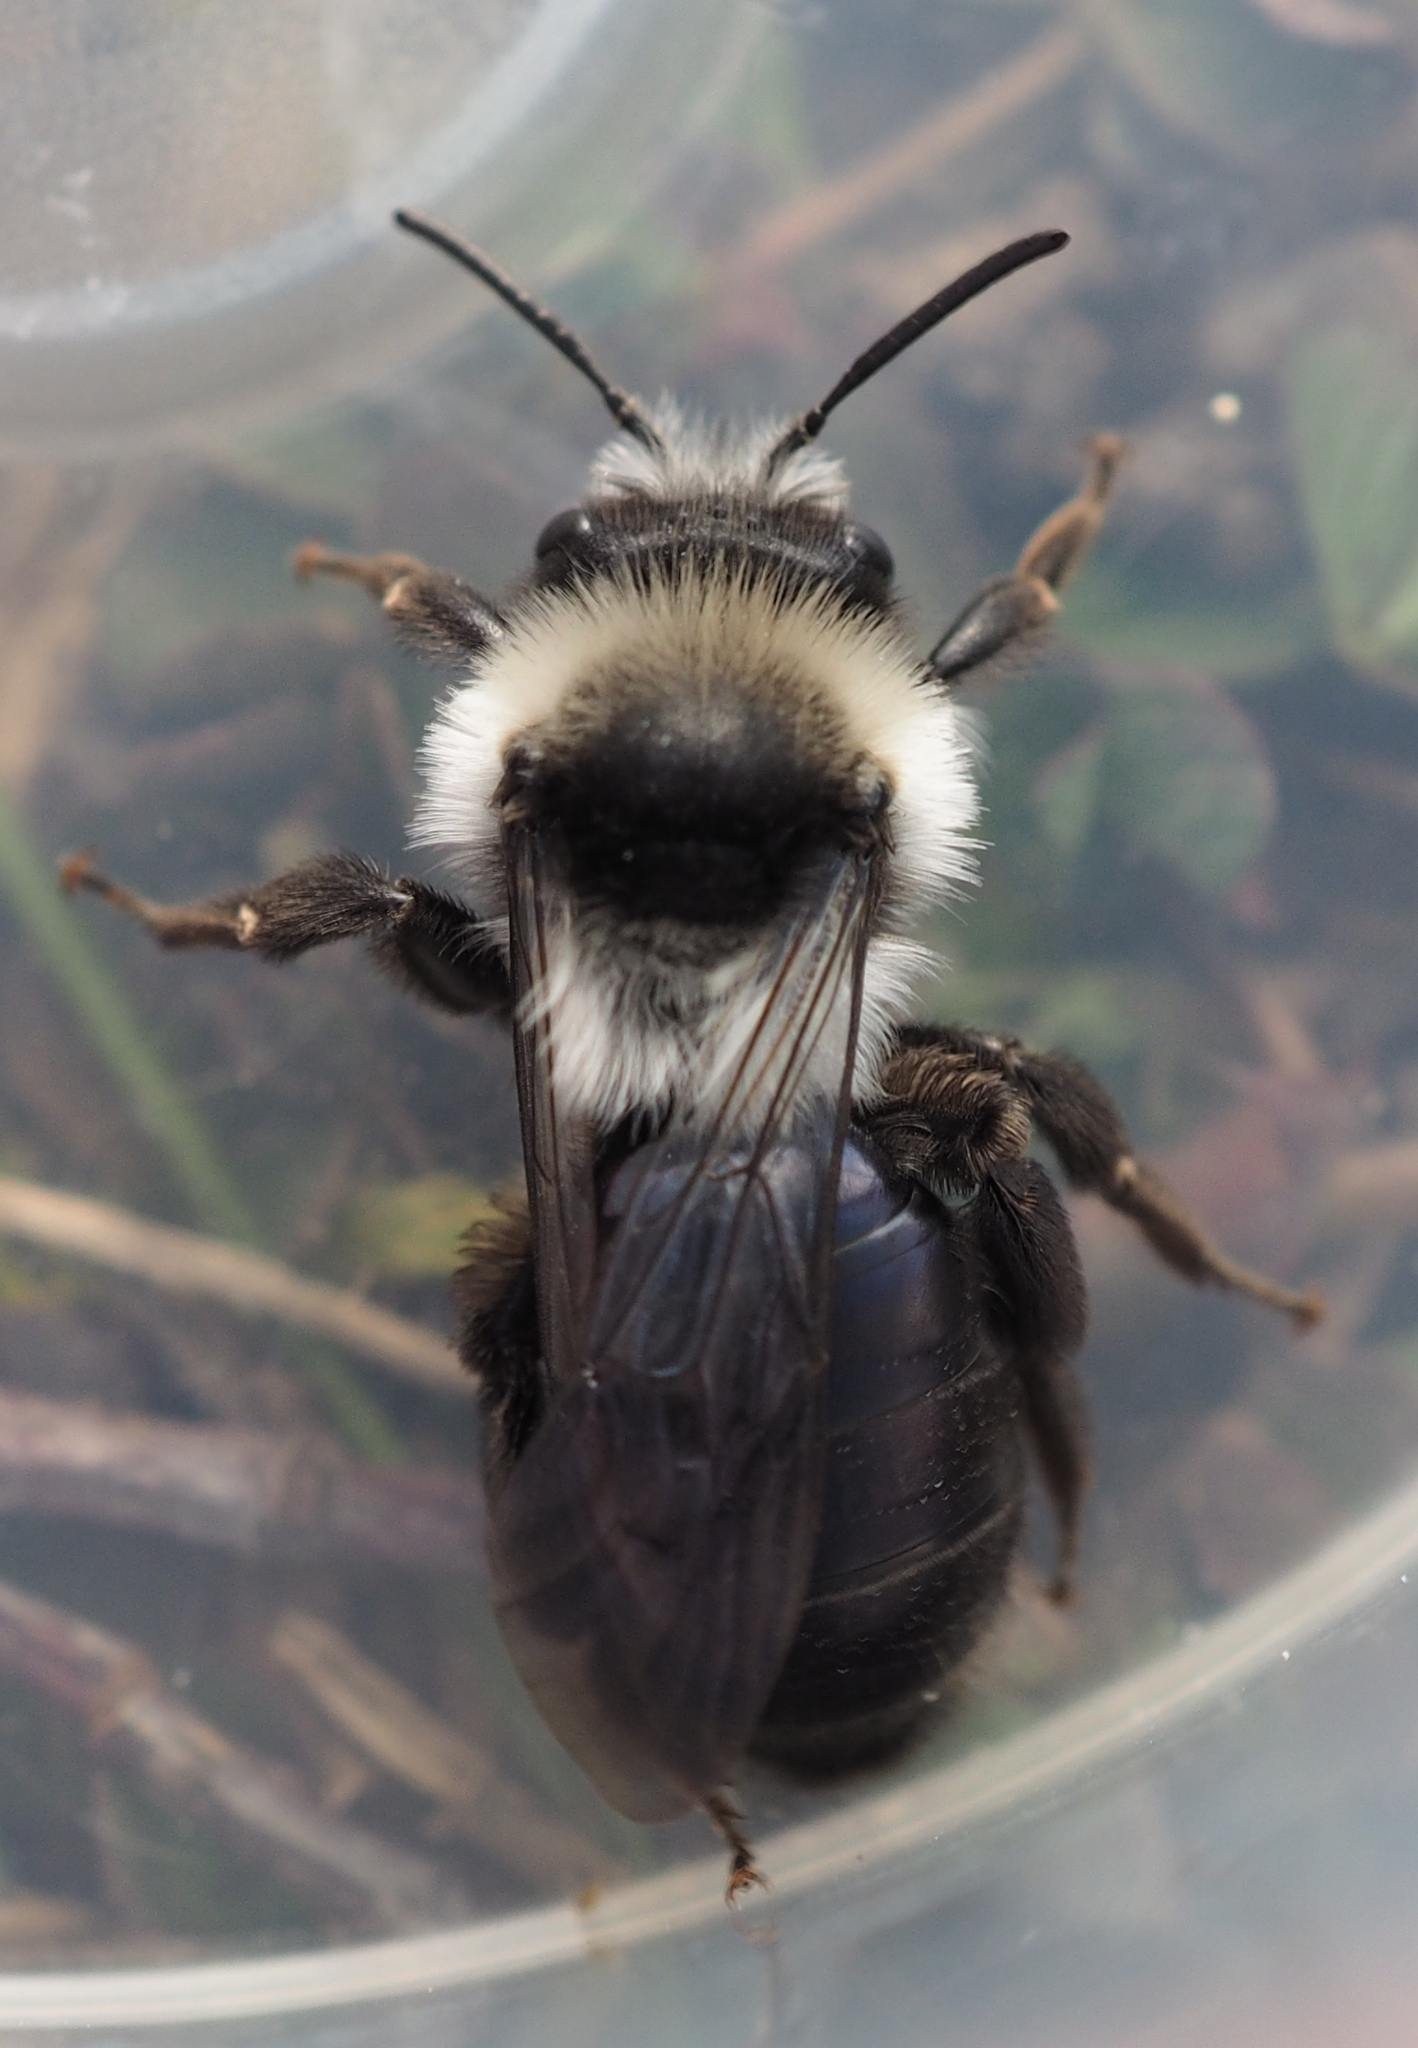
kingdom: Animalia
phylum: Arthropoda
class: Insecta
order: Hymenoptera
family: Andrenidae
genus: Andrena
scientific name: Andrena cineraria
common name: Ashy mining bee
